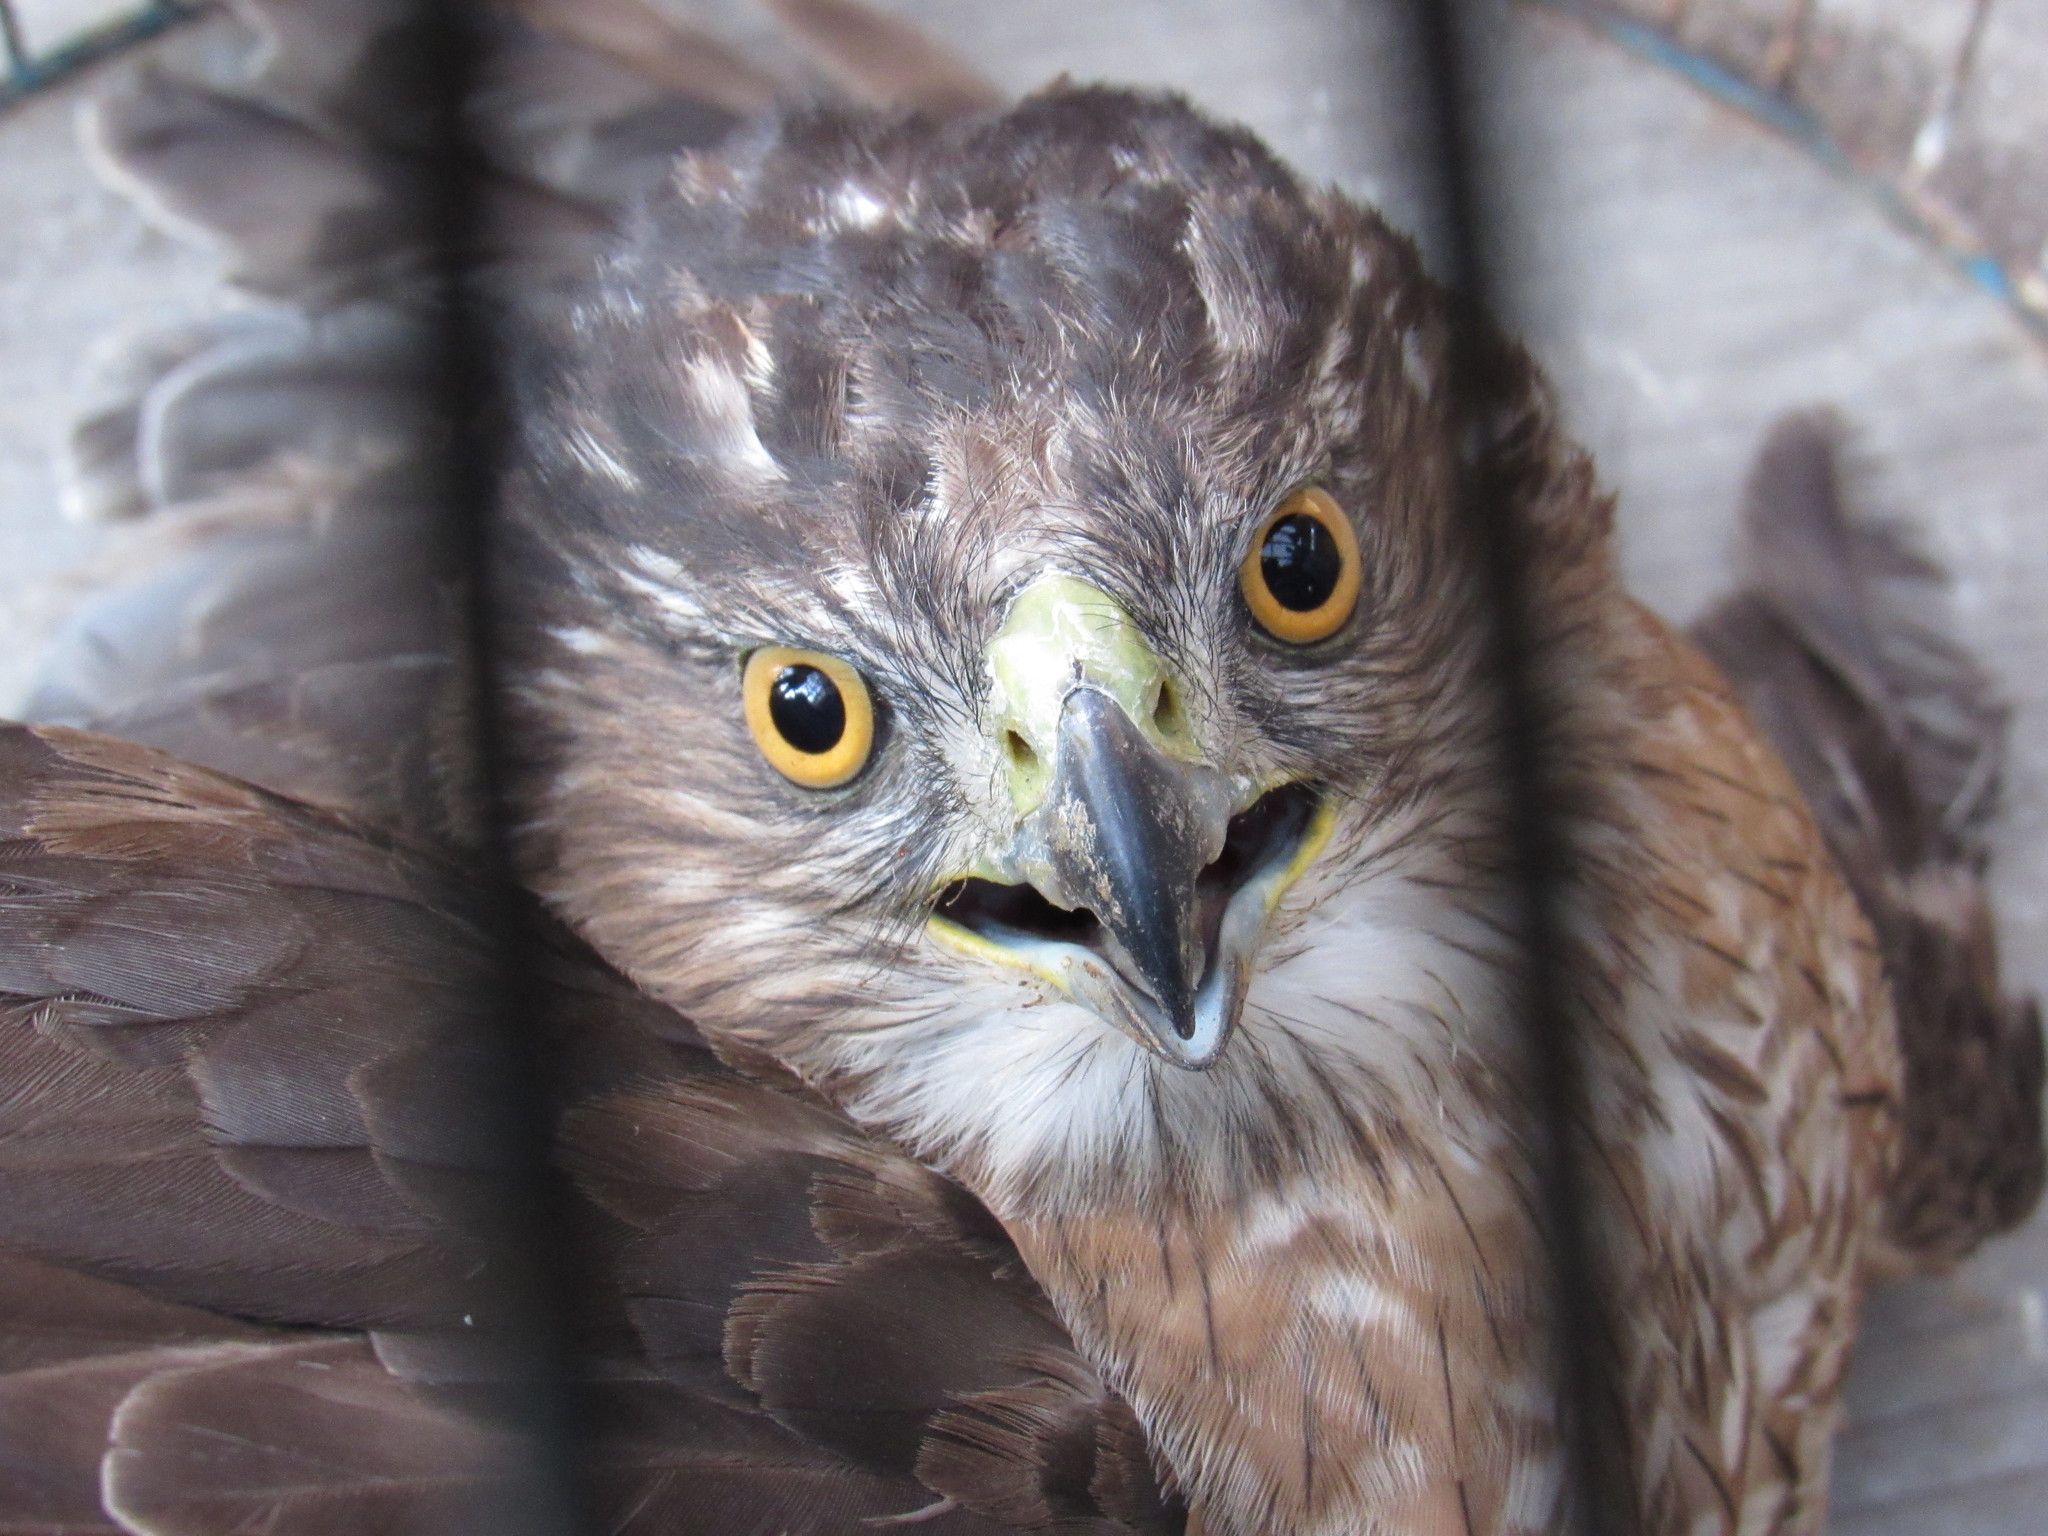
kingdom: Animalia
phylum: Chordata
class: Aves
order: Accipitriformes
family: Accipitridae
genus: Accipiter
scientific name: Accipiter cooperii
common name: Cooper's hawk
